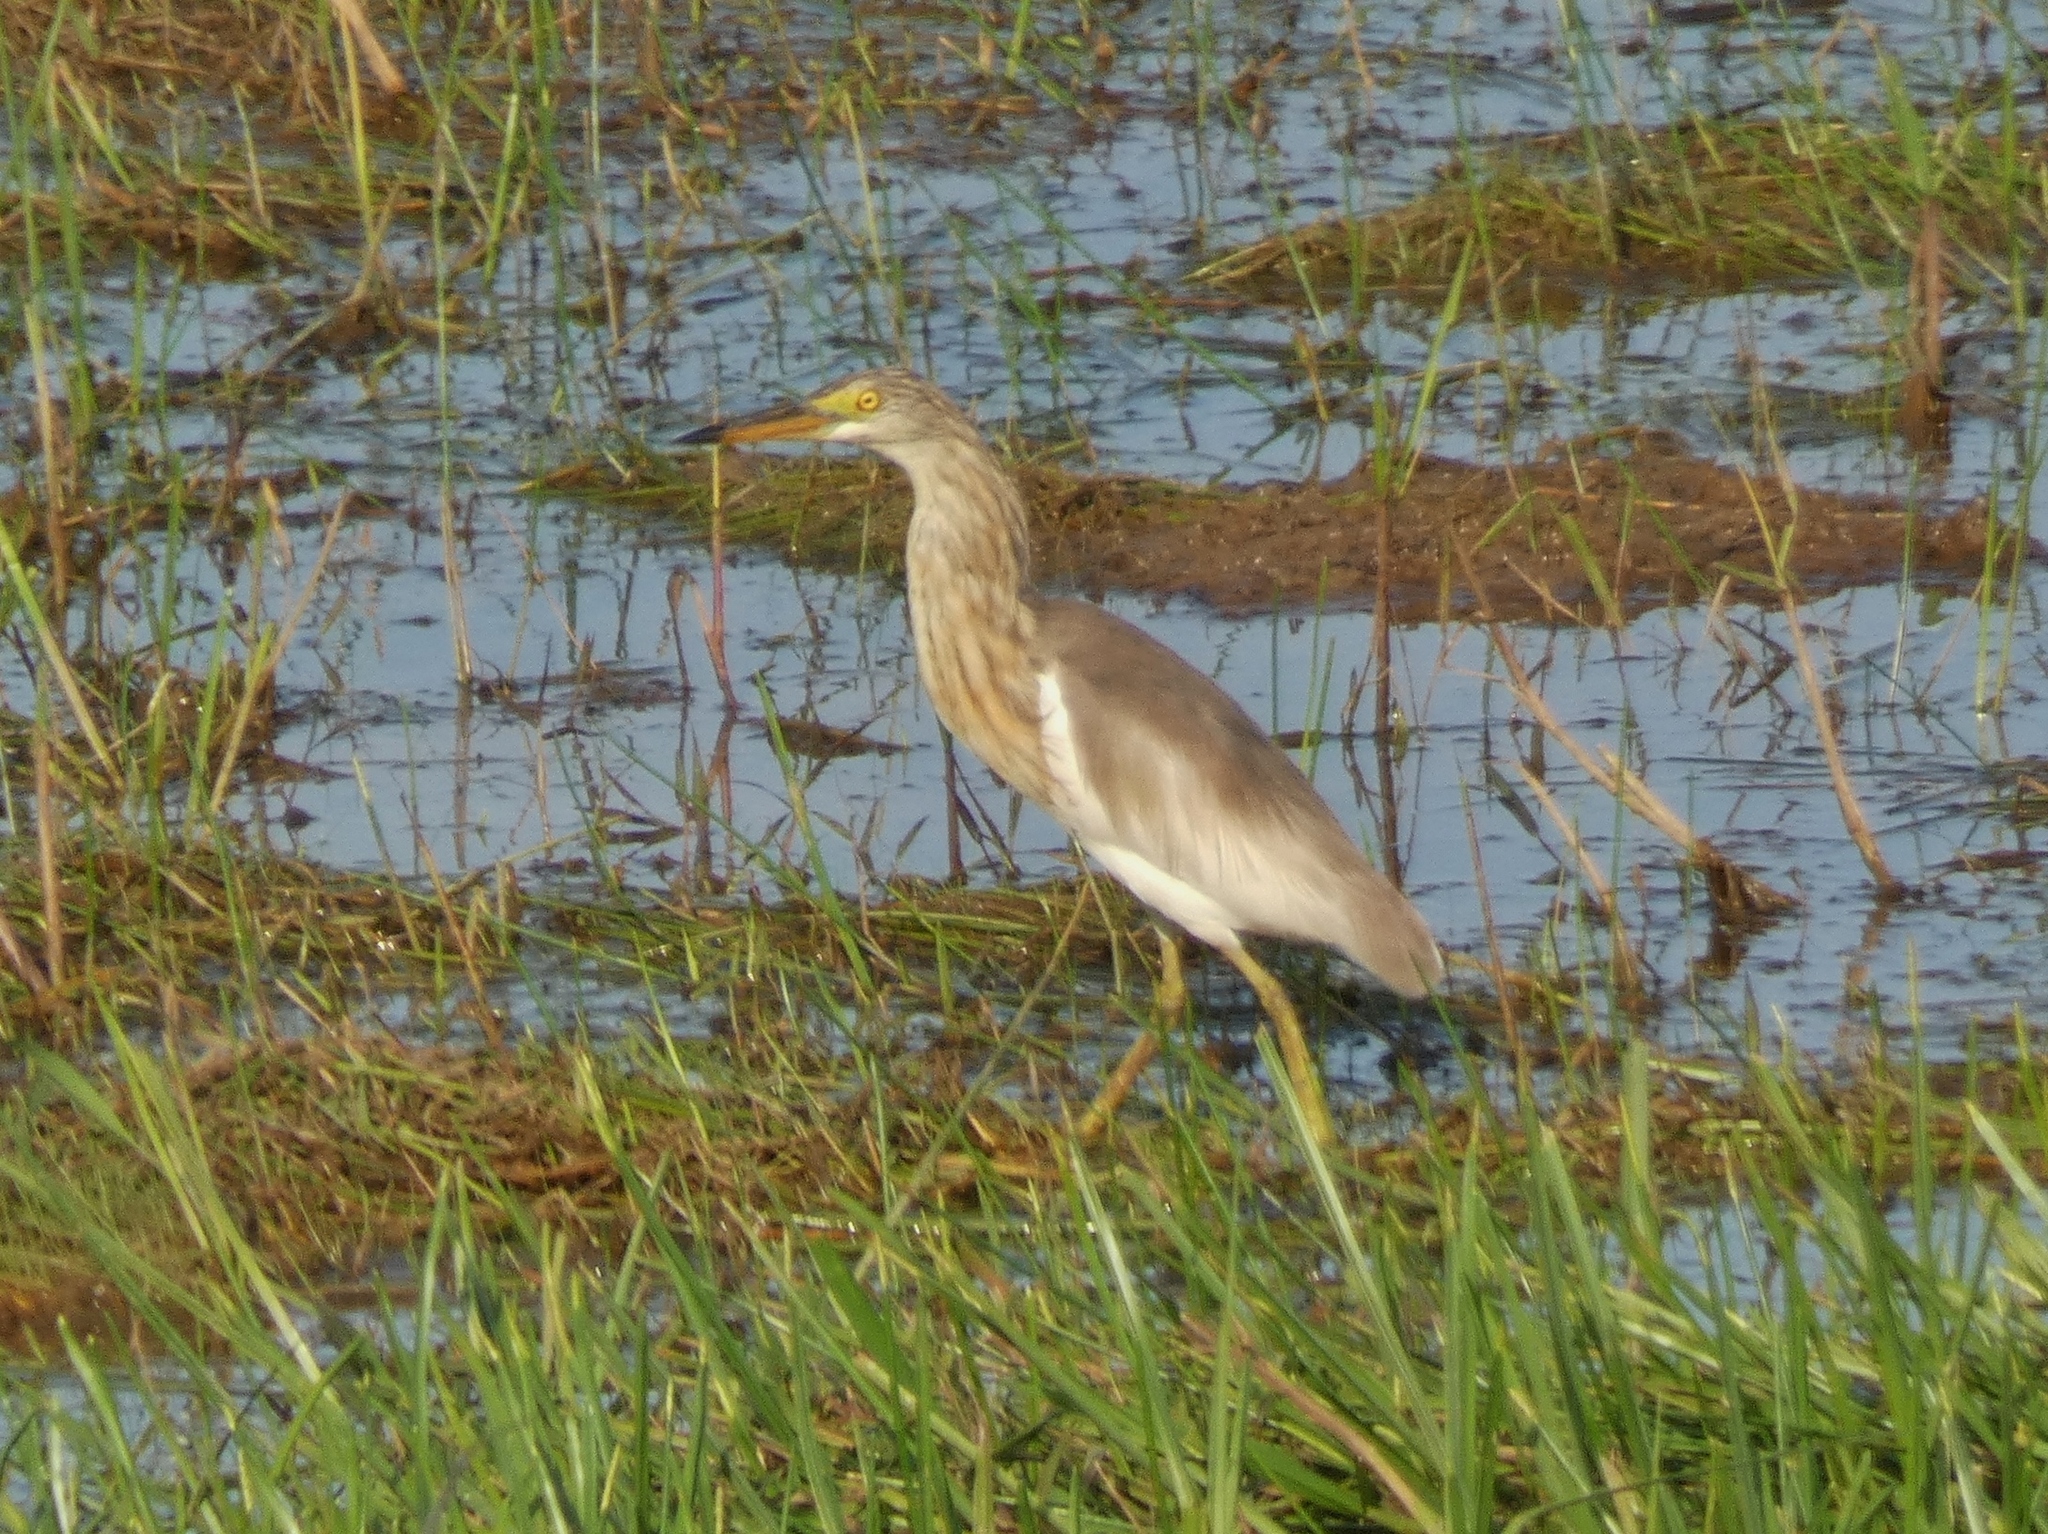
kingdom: Animalia
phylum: Chordata
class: Aves
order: Pelecaniformes
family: Ardeidae
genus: Ardeola
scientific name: Ardeola speciosa
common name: Javan pond heron
